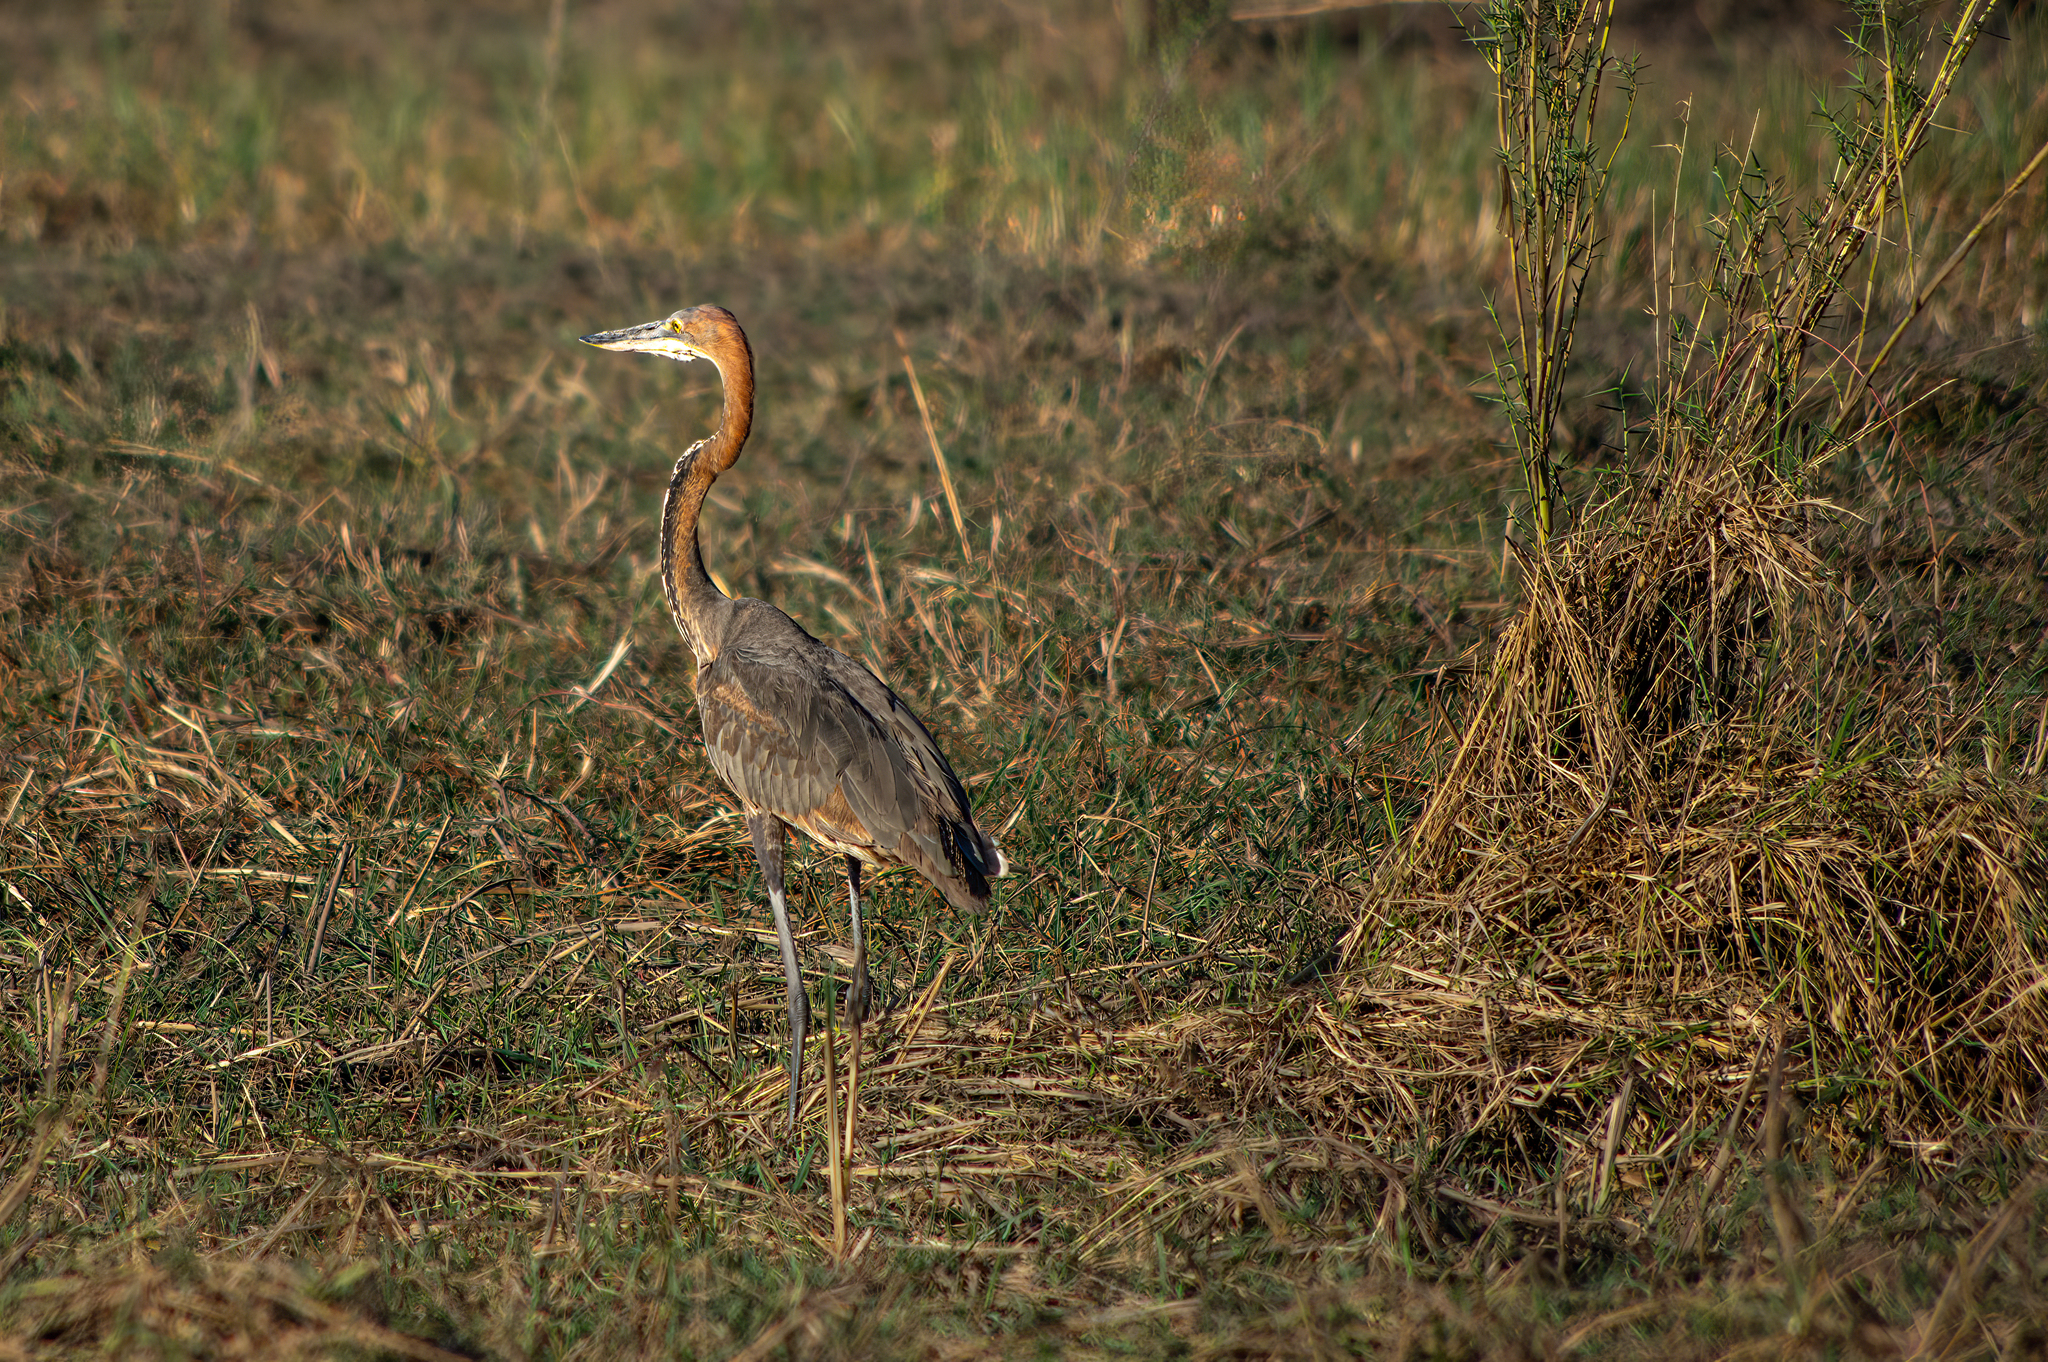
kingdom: Animalia
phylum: Chordata
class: Aves
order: Pelecaniformes
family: Ardeidae
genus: Ardea
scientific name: Ardea purpurea
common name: Purple heron
